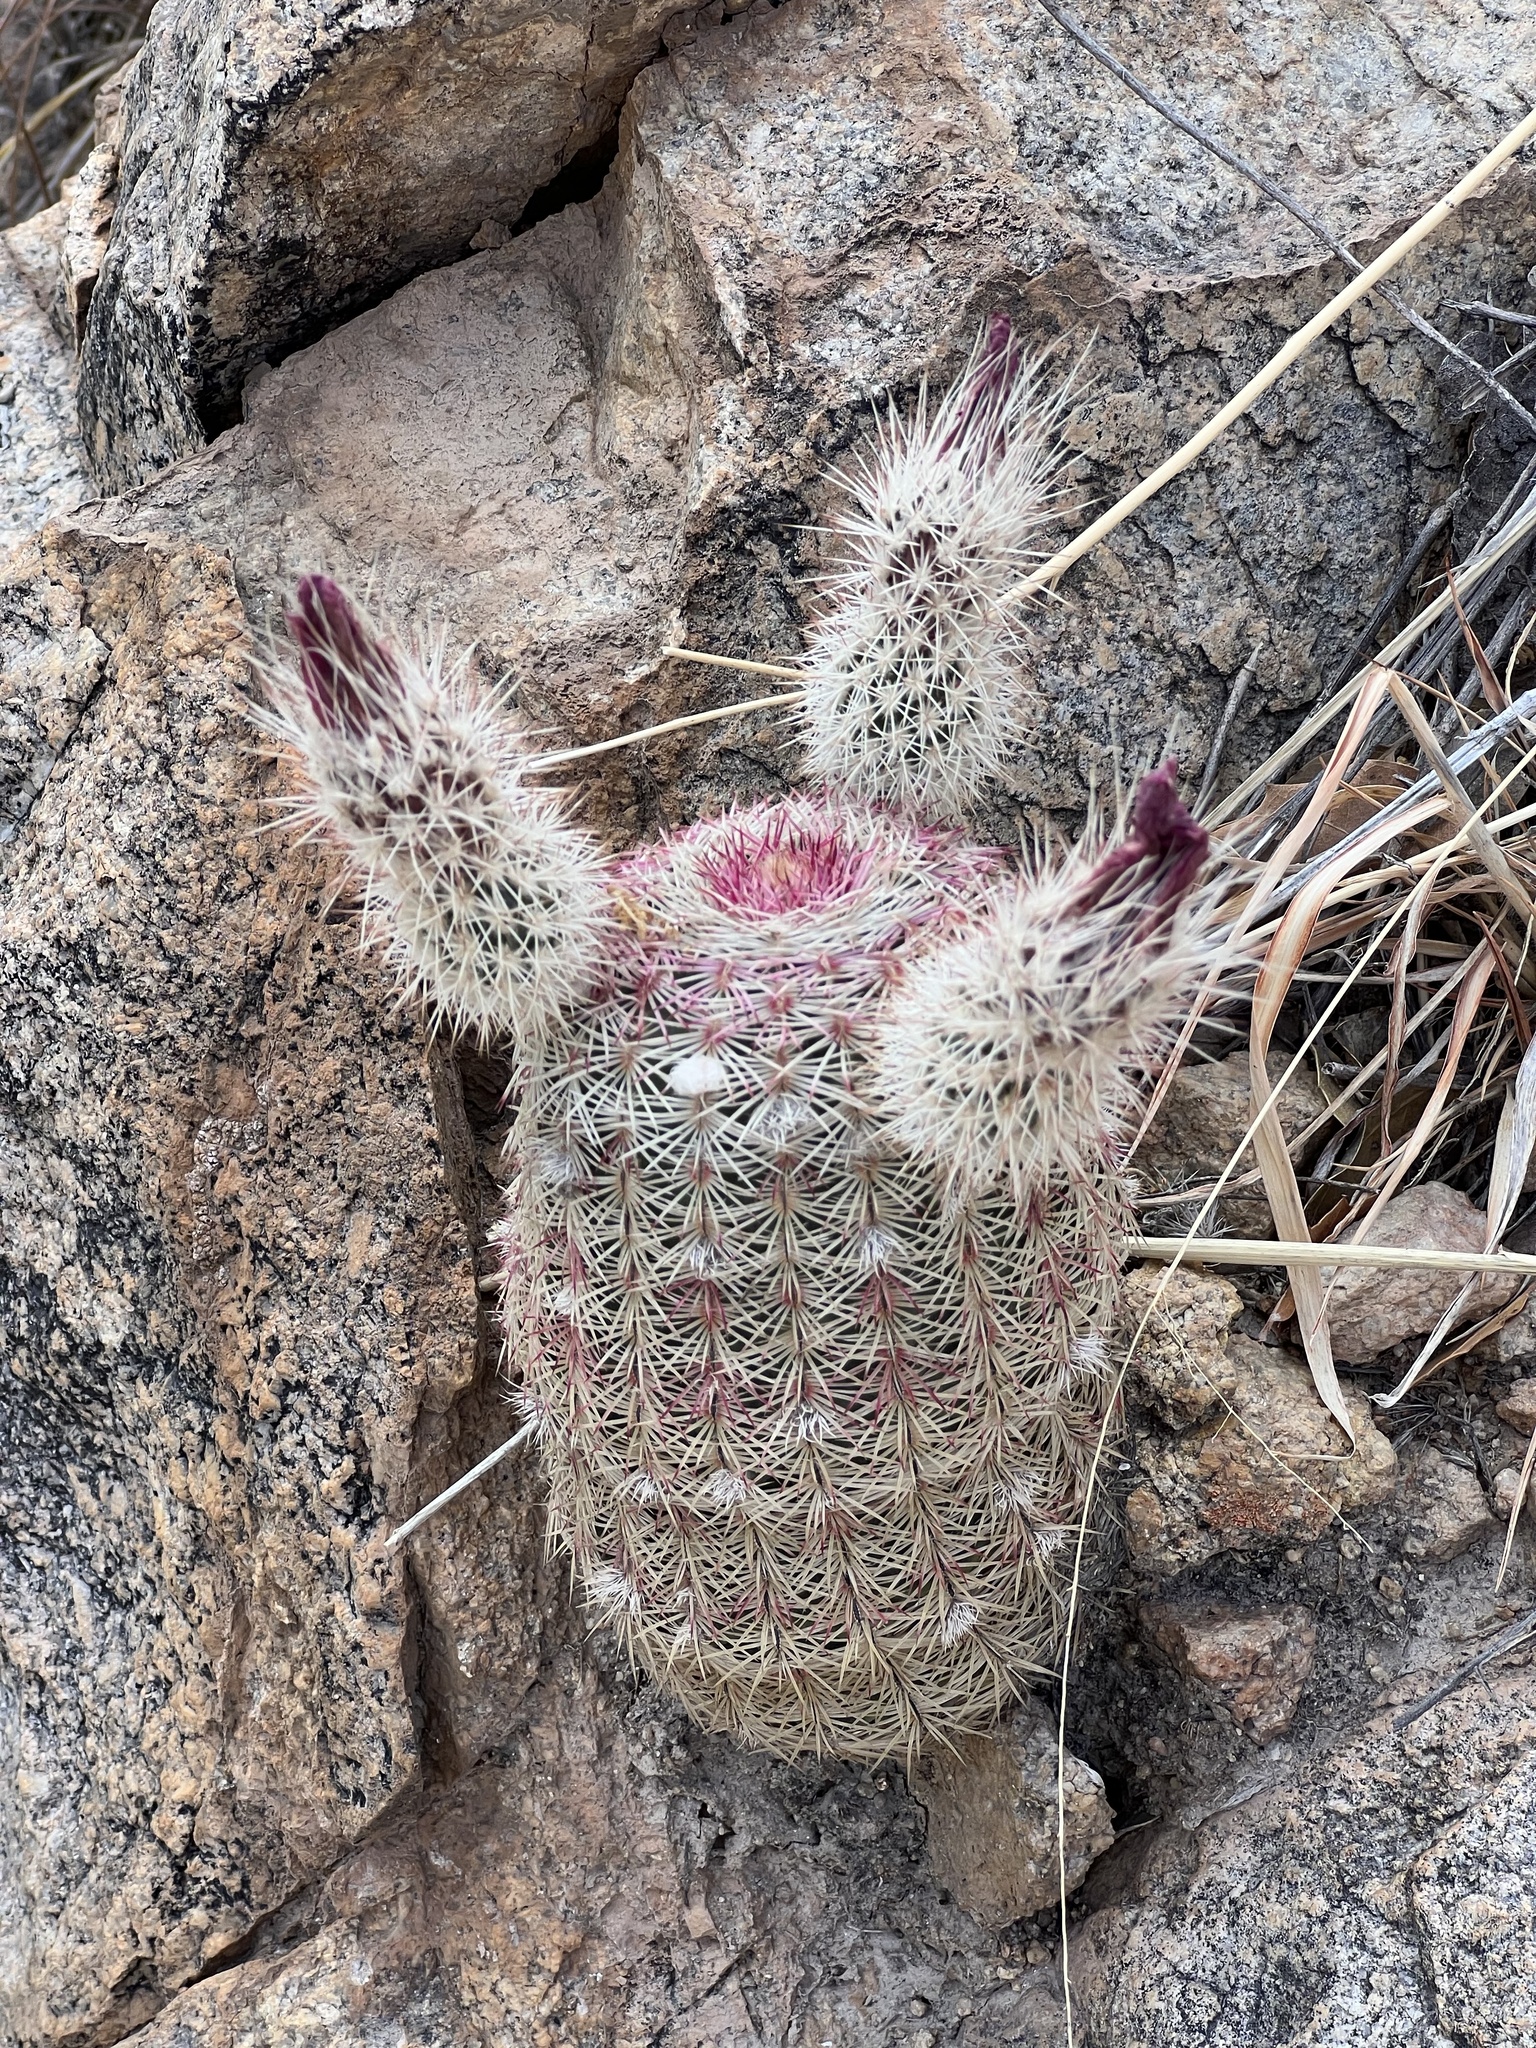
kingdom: Plantae
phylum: Tracheophyta
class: Magnoliopsida
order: Caryophyllales
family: Cactaceae
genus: Echinocereus
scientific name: Echinocereus rigidissimus
